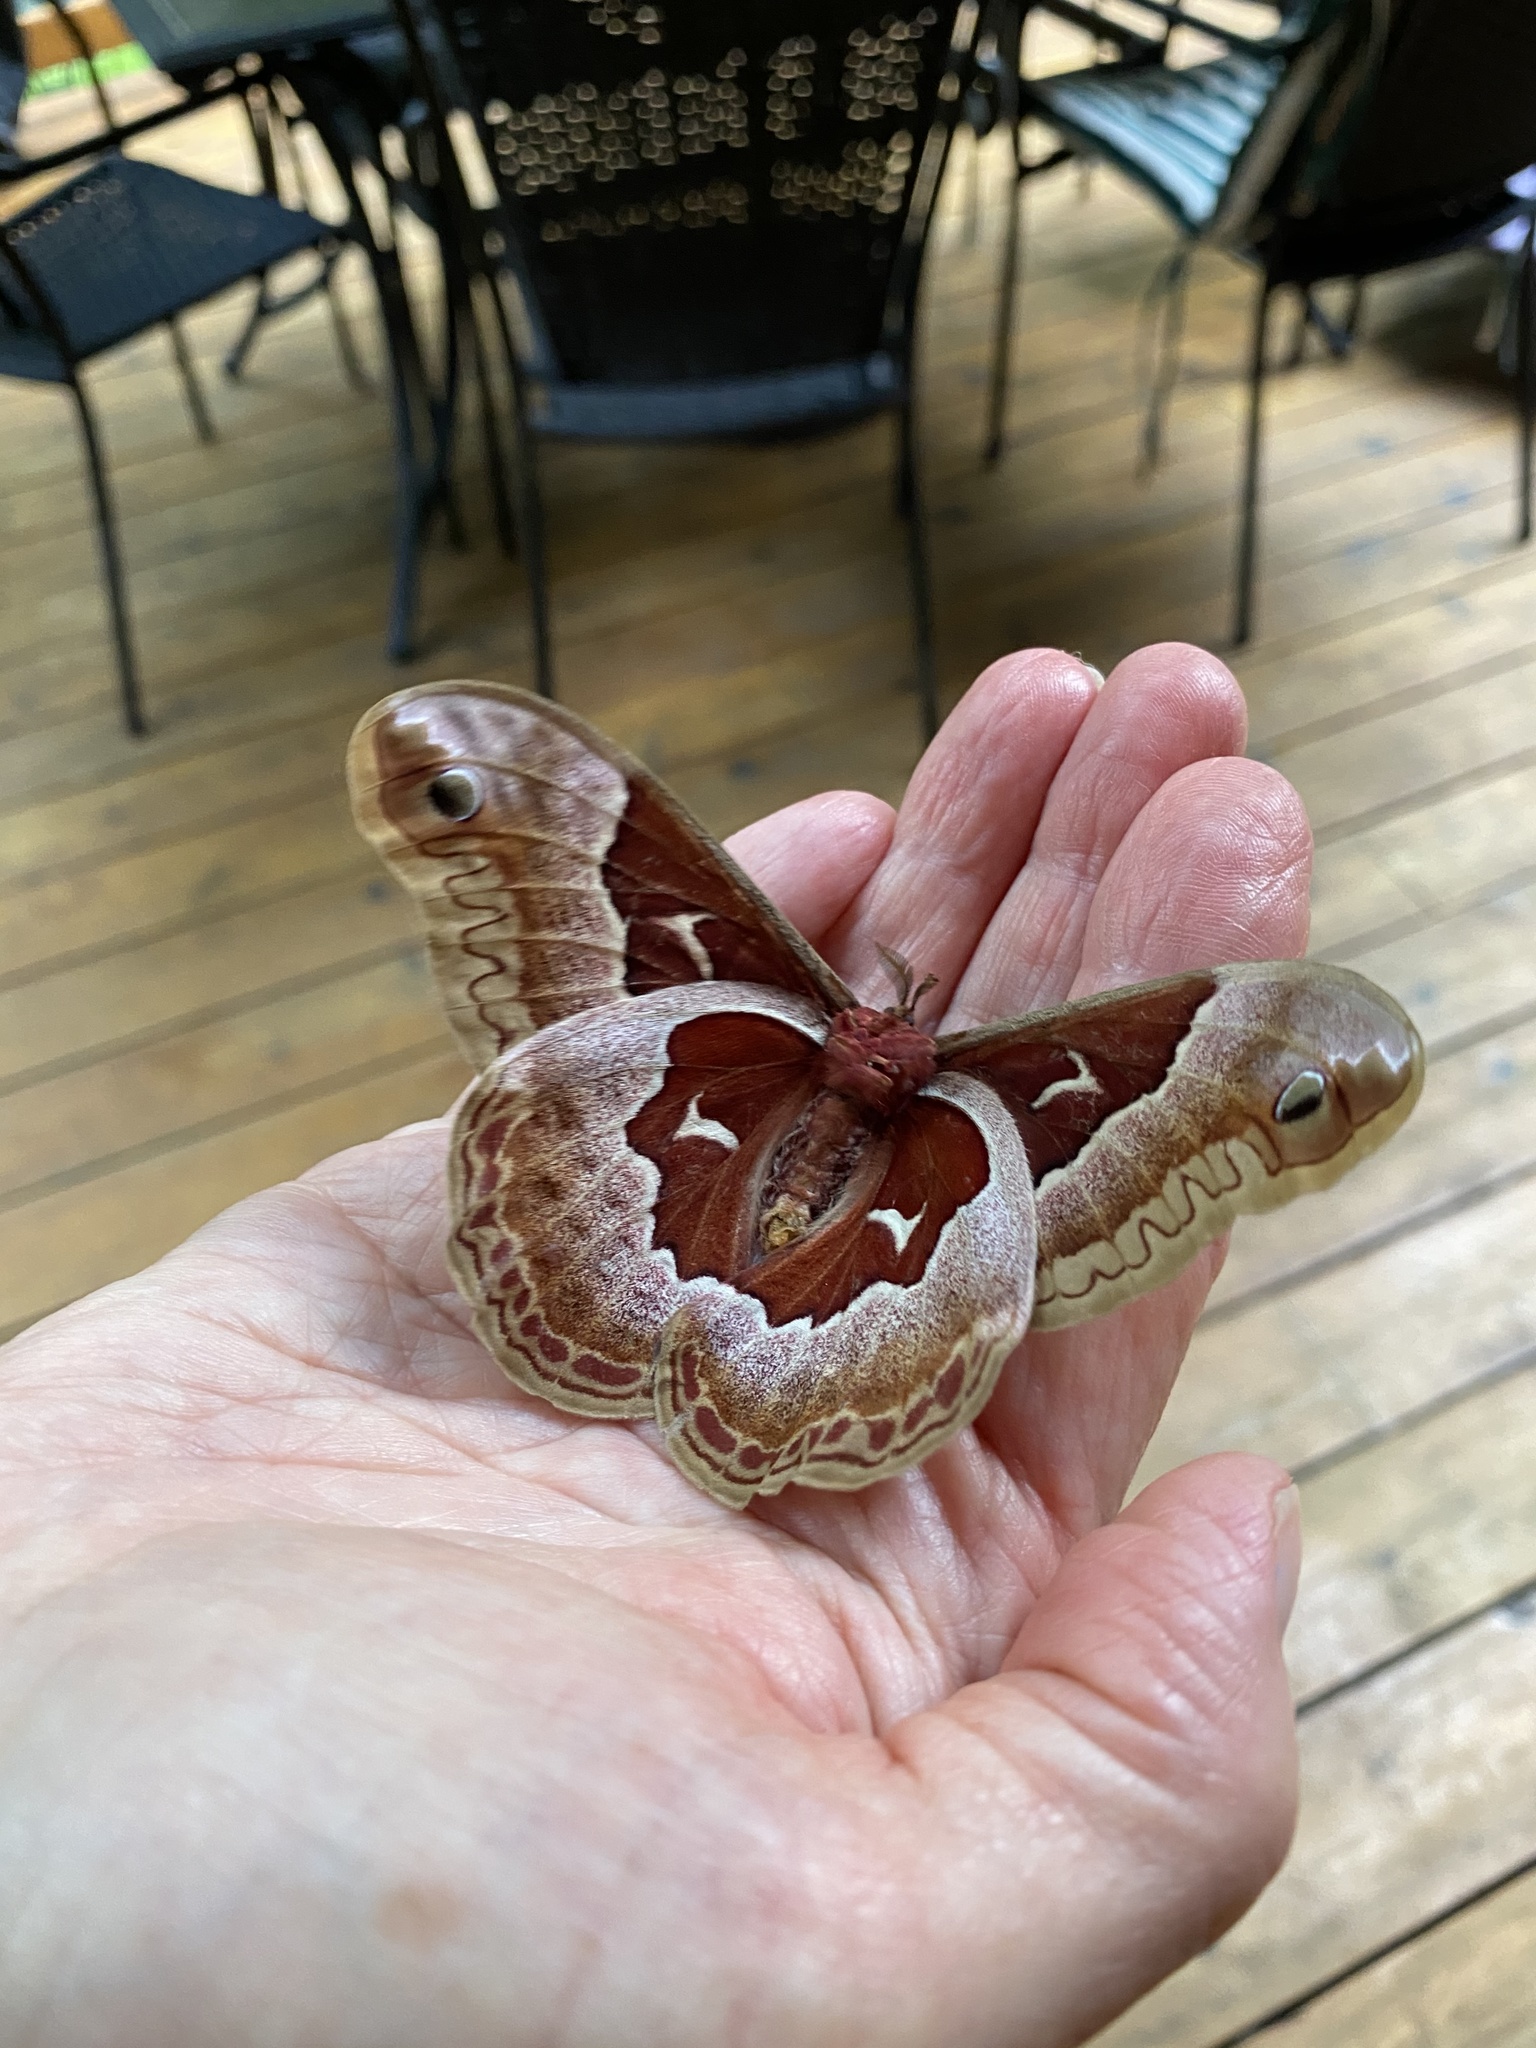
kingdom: Animalia
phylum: Arthropoda
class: Insecta
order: Lepidoptera
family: Saturniidae
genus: Callosamia
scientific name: Callosamia promethea
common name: Promethea silkmoth
